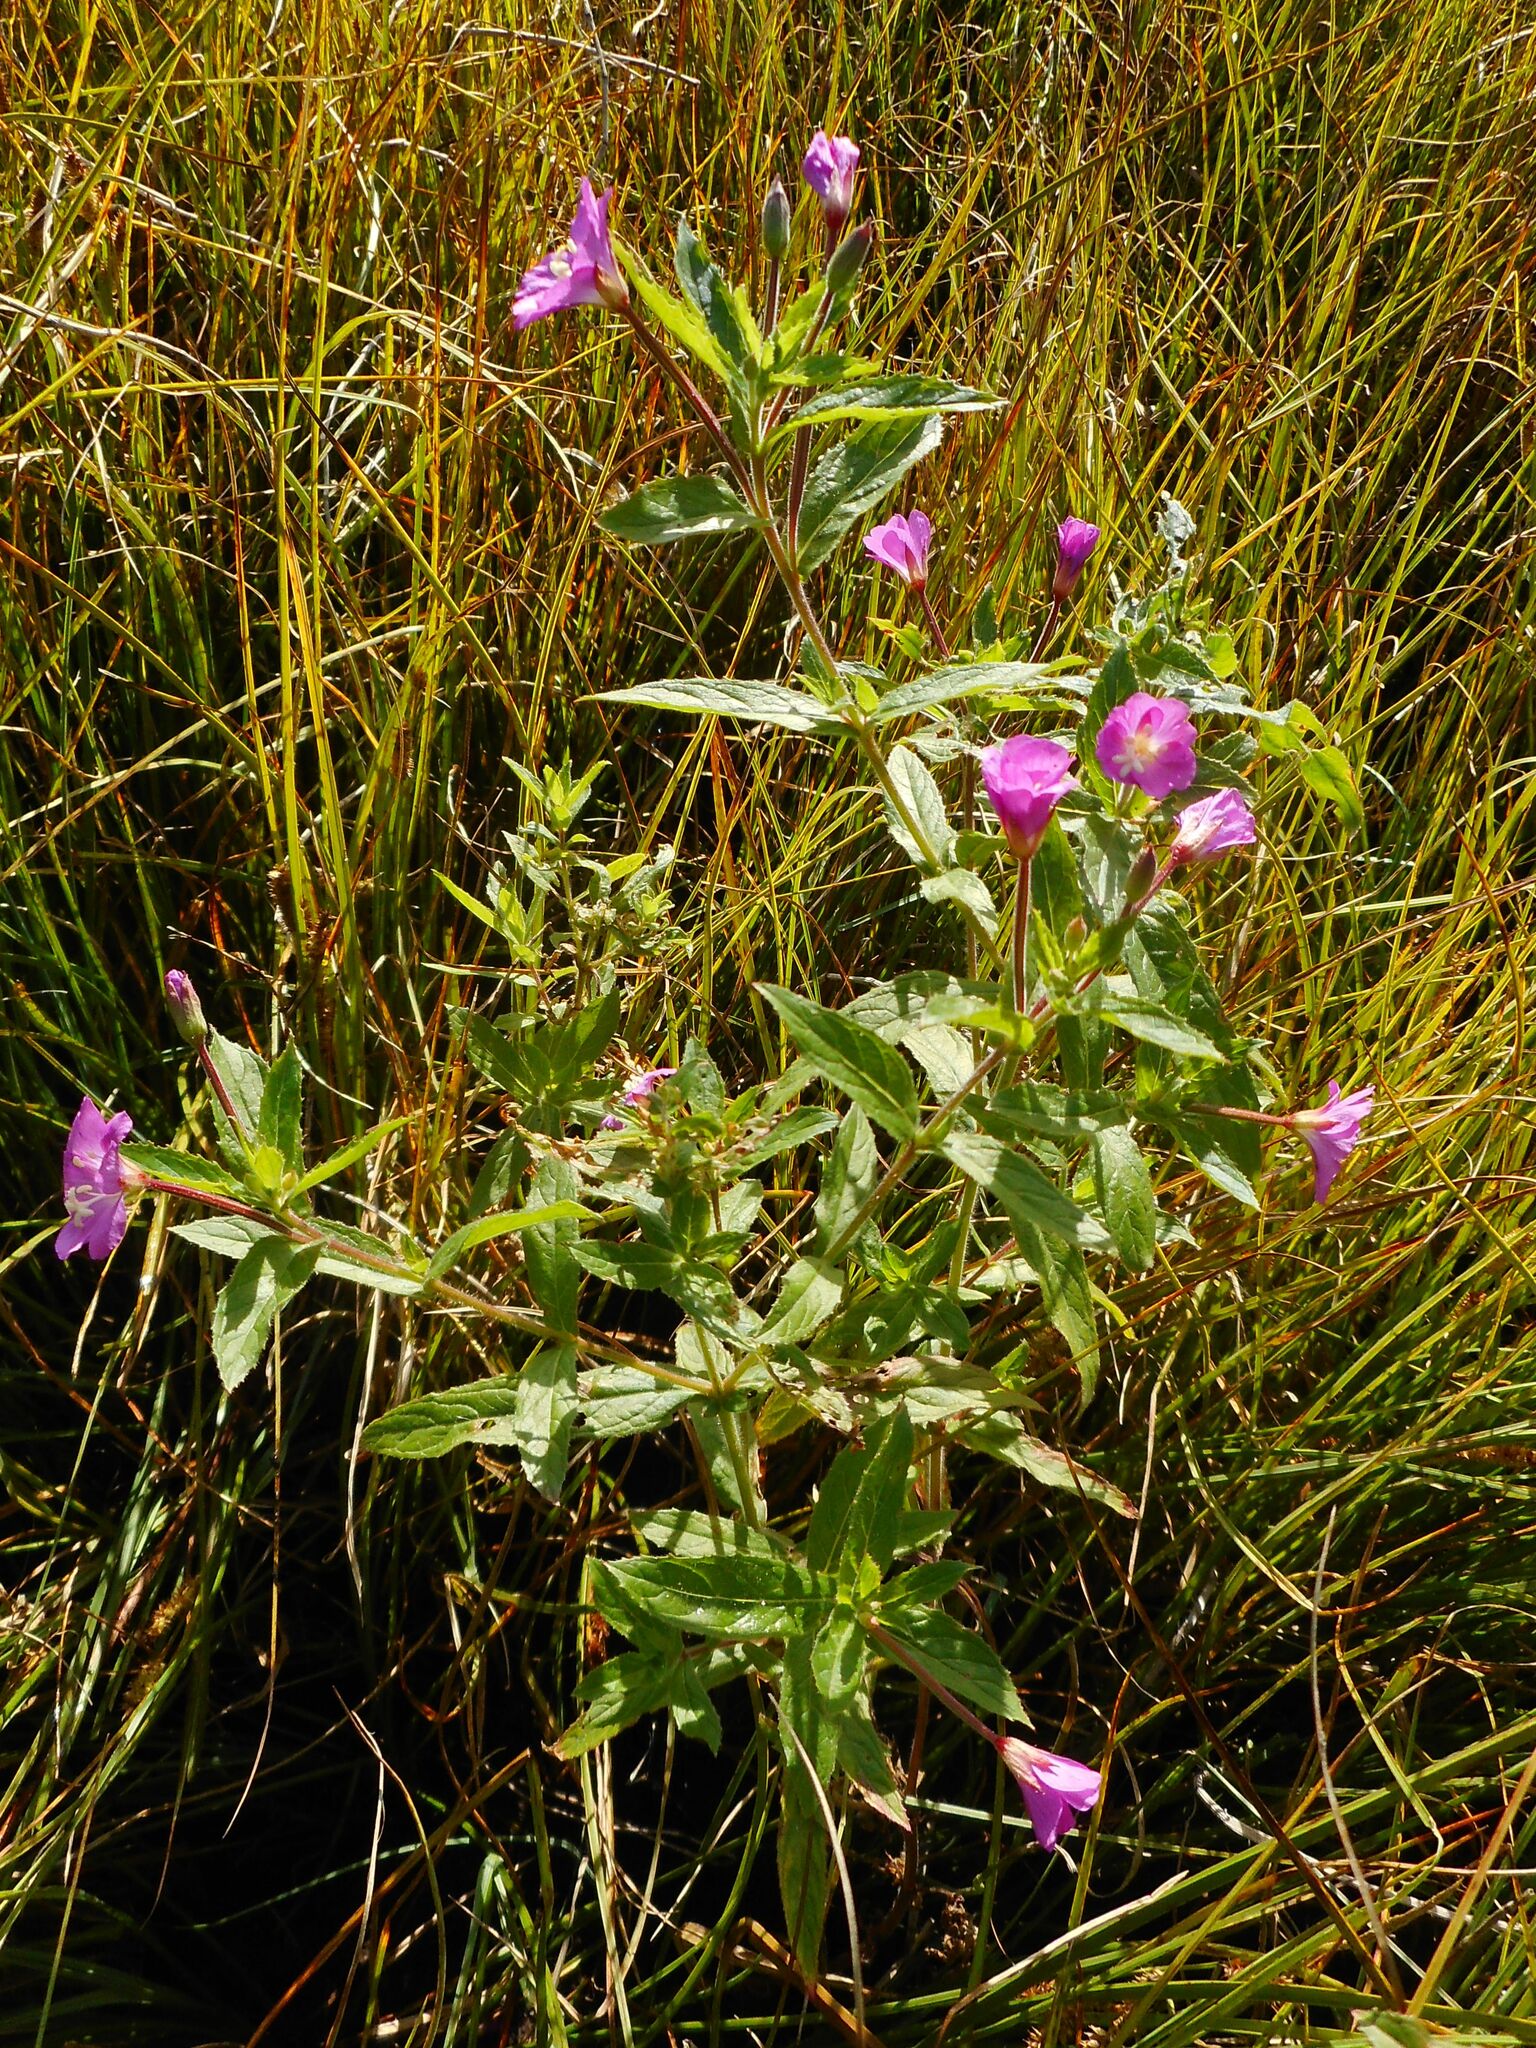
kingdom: Plantae
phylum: Tracheophyta
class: Magnoliopsida
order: Myrtales
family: Onagraceae
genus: Epilobium
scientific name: Epilobium hirsutum
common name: Great willowherb
